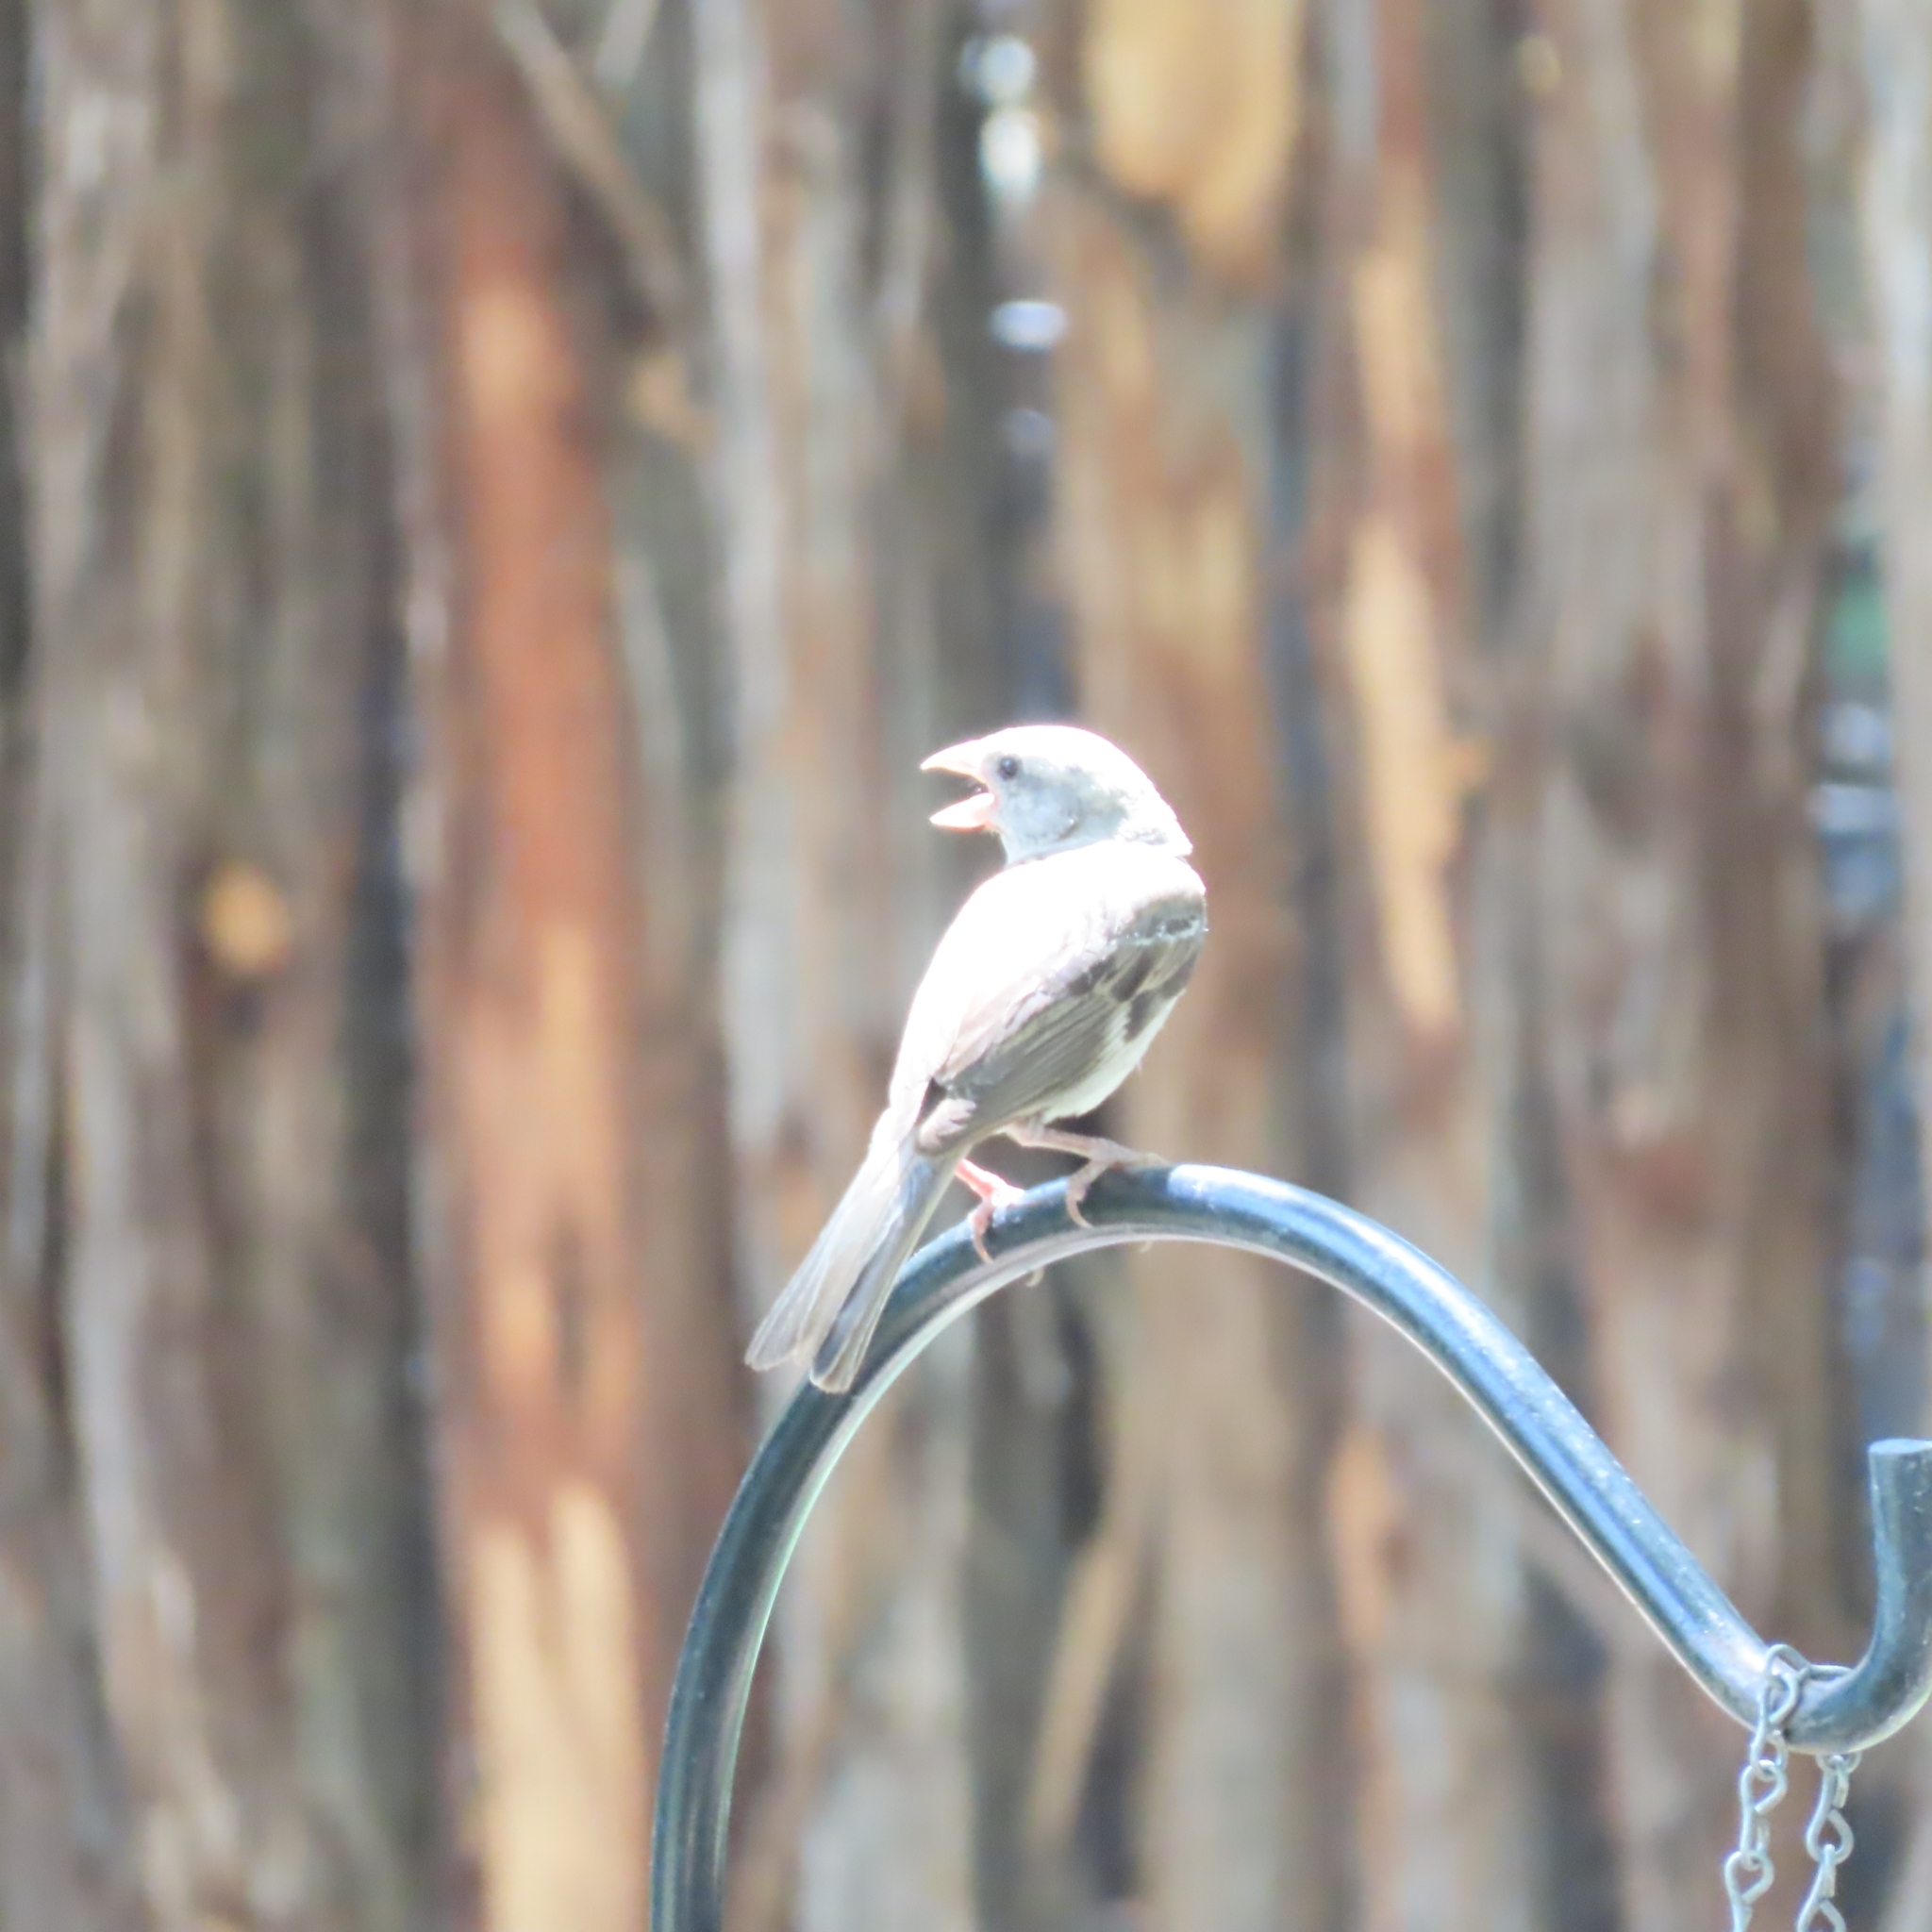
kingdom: Animalia
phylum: Chordata
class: Aves
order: Passeriformes
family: Passeridae
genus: Passer
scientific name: Passer domesticus
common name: House sparrow
